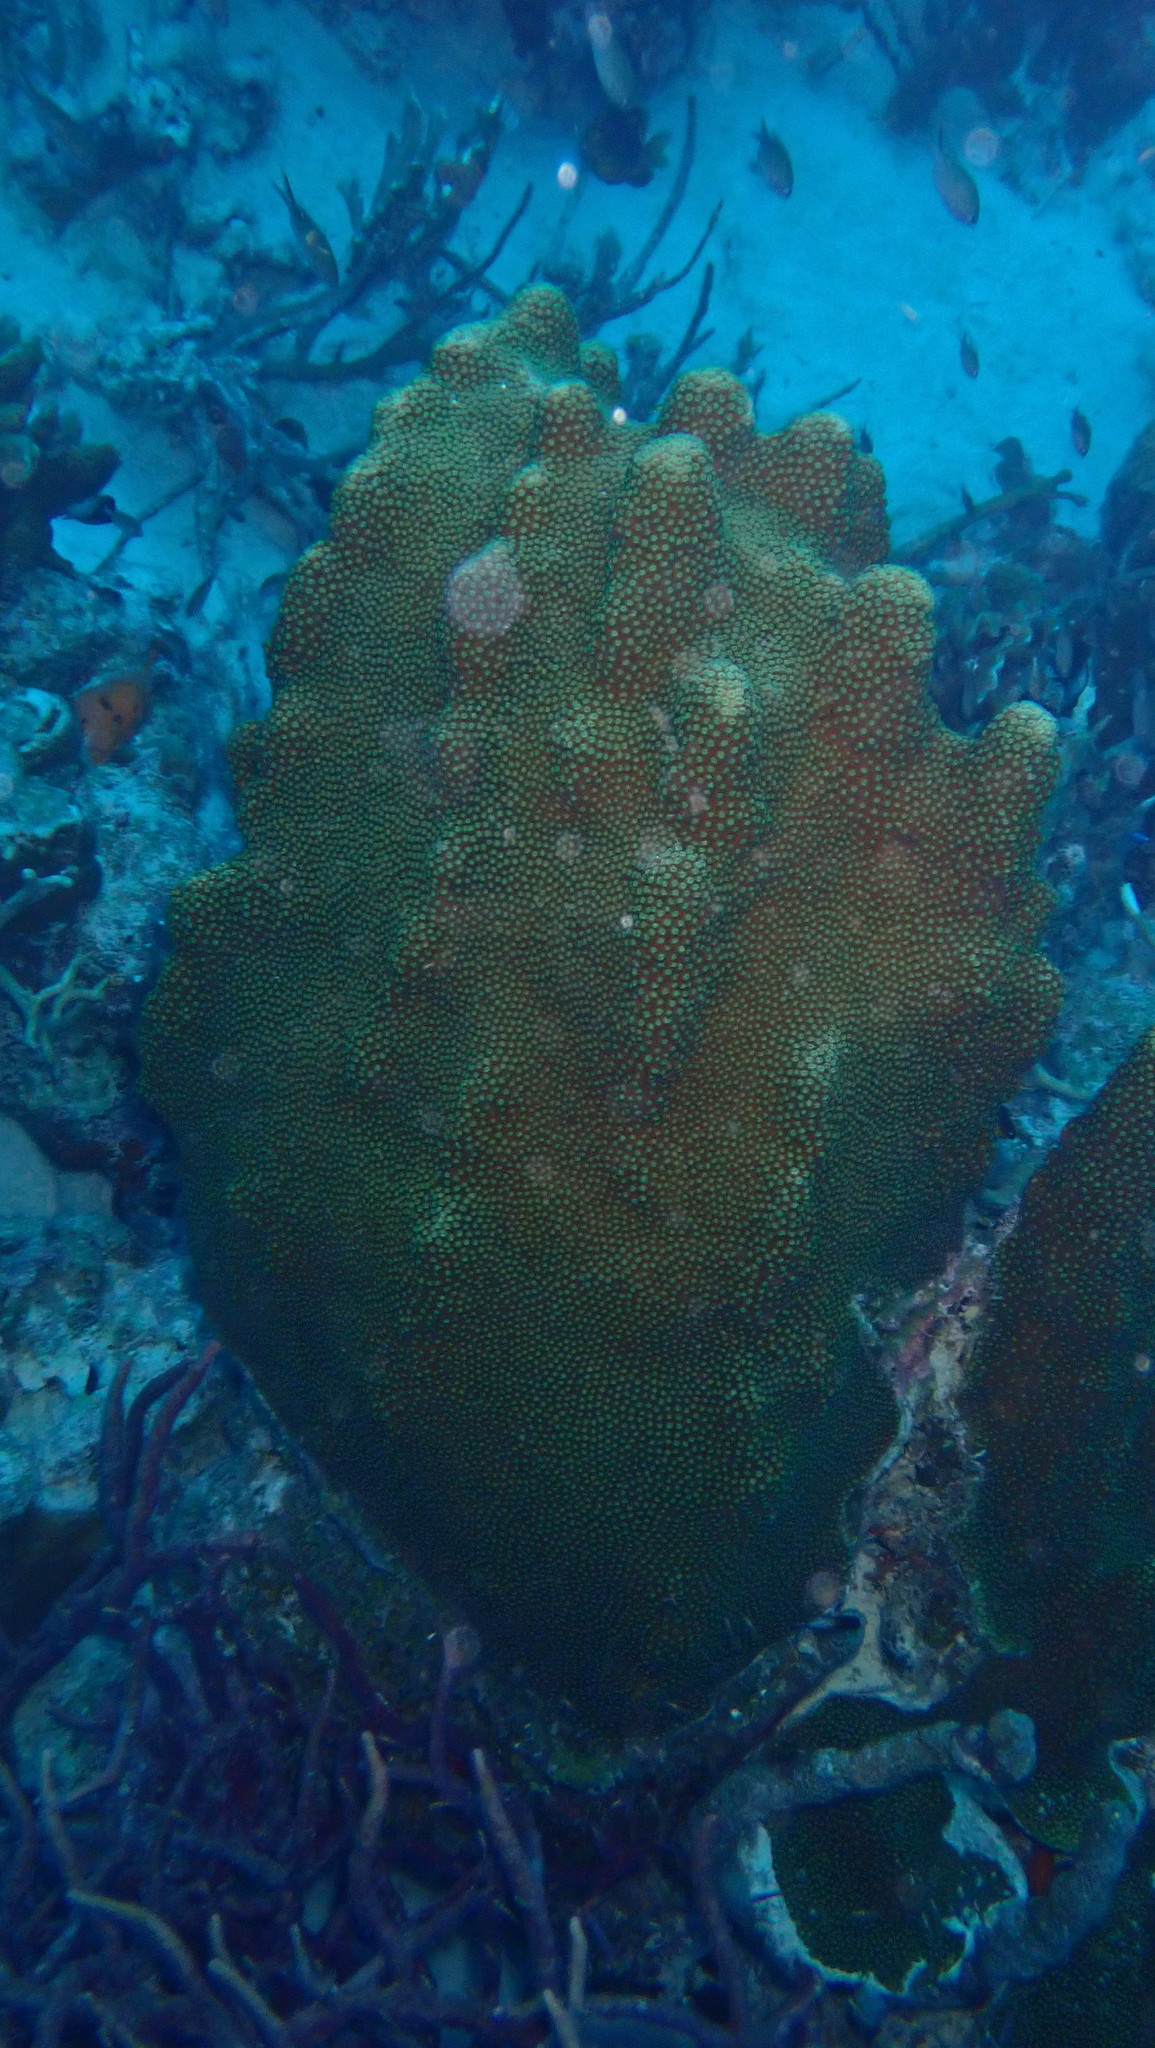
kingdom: Animalia
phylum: Cnidaria
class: Anthozoa
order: Scleractinia
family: Merulinidae
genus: Orbicella
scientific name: Orbicella faveolata
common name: Mountainous star coral
